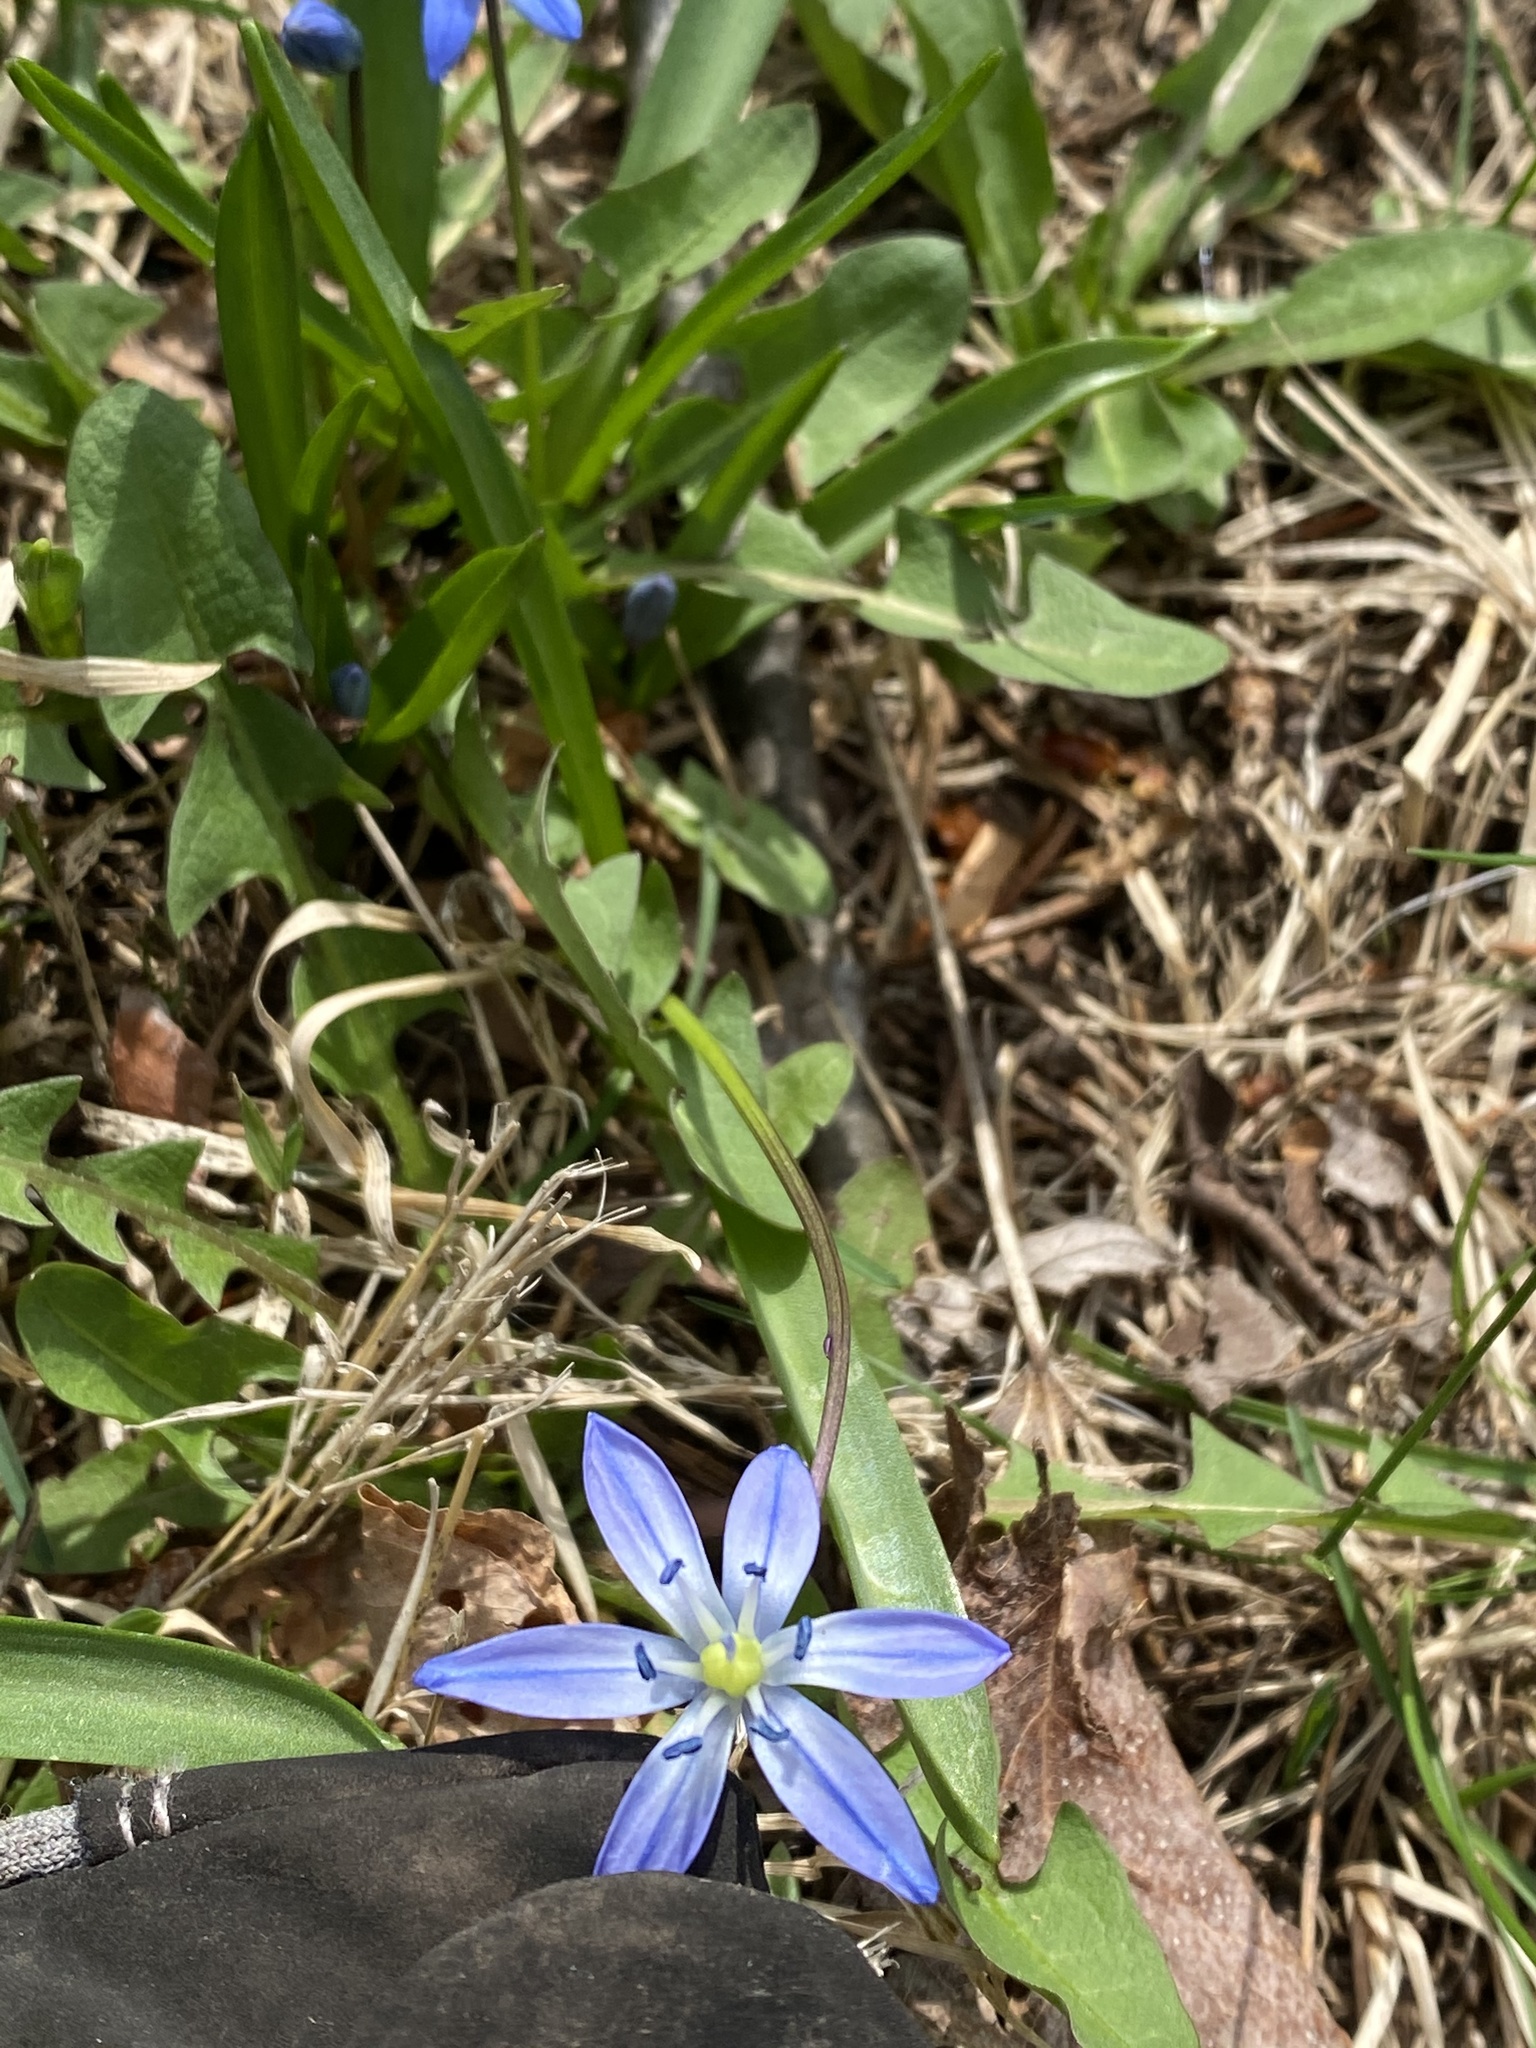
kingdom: Plantae
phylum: Tracheophyta
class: Liliopsida
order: Asparagales
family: Asparagaceae
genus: Scilla
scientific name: Scilla siberica
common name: Siberian squill
